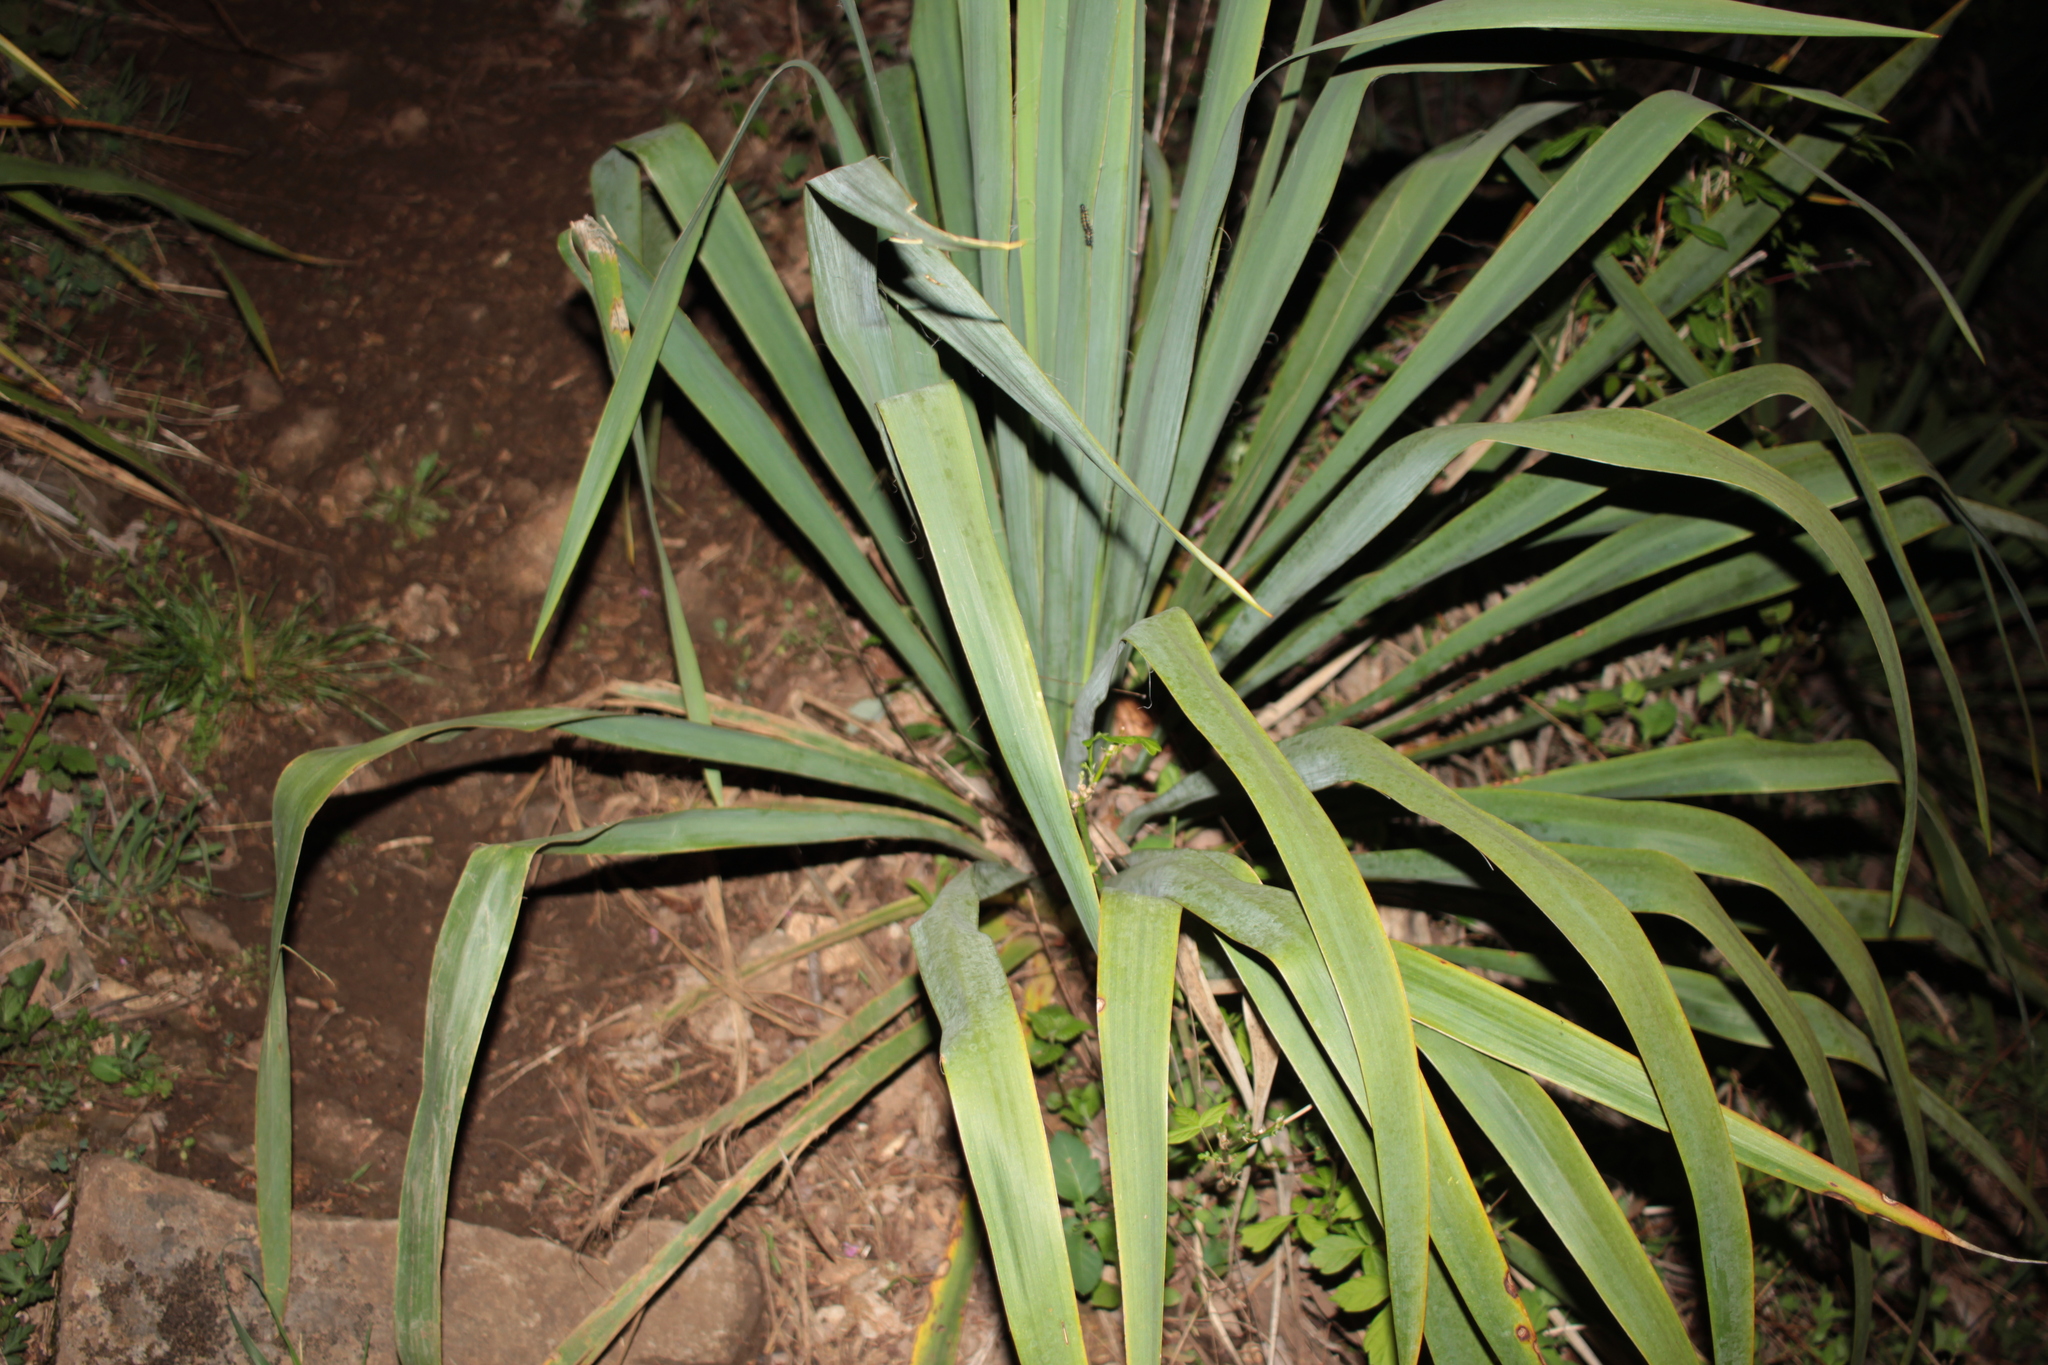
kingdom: Plantae
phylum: Tracheophyta
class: Liliopsida
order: Asparagales
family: Asparagaceae
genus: Yucca
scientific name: Yucca filamentosa
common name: Adam's-needle
